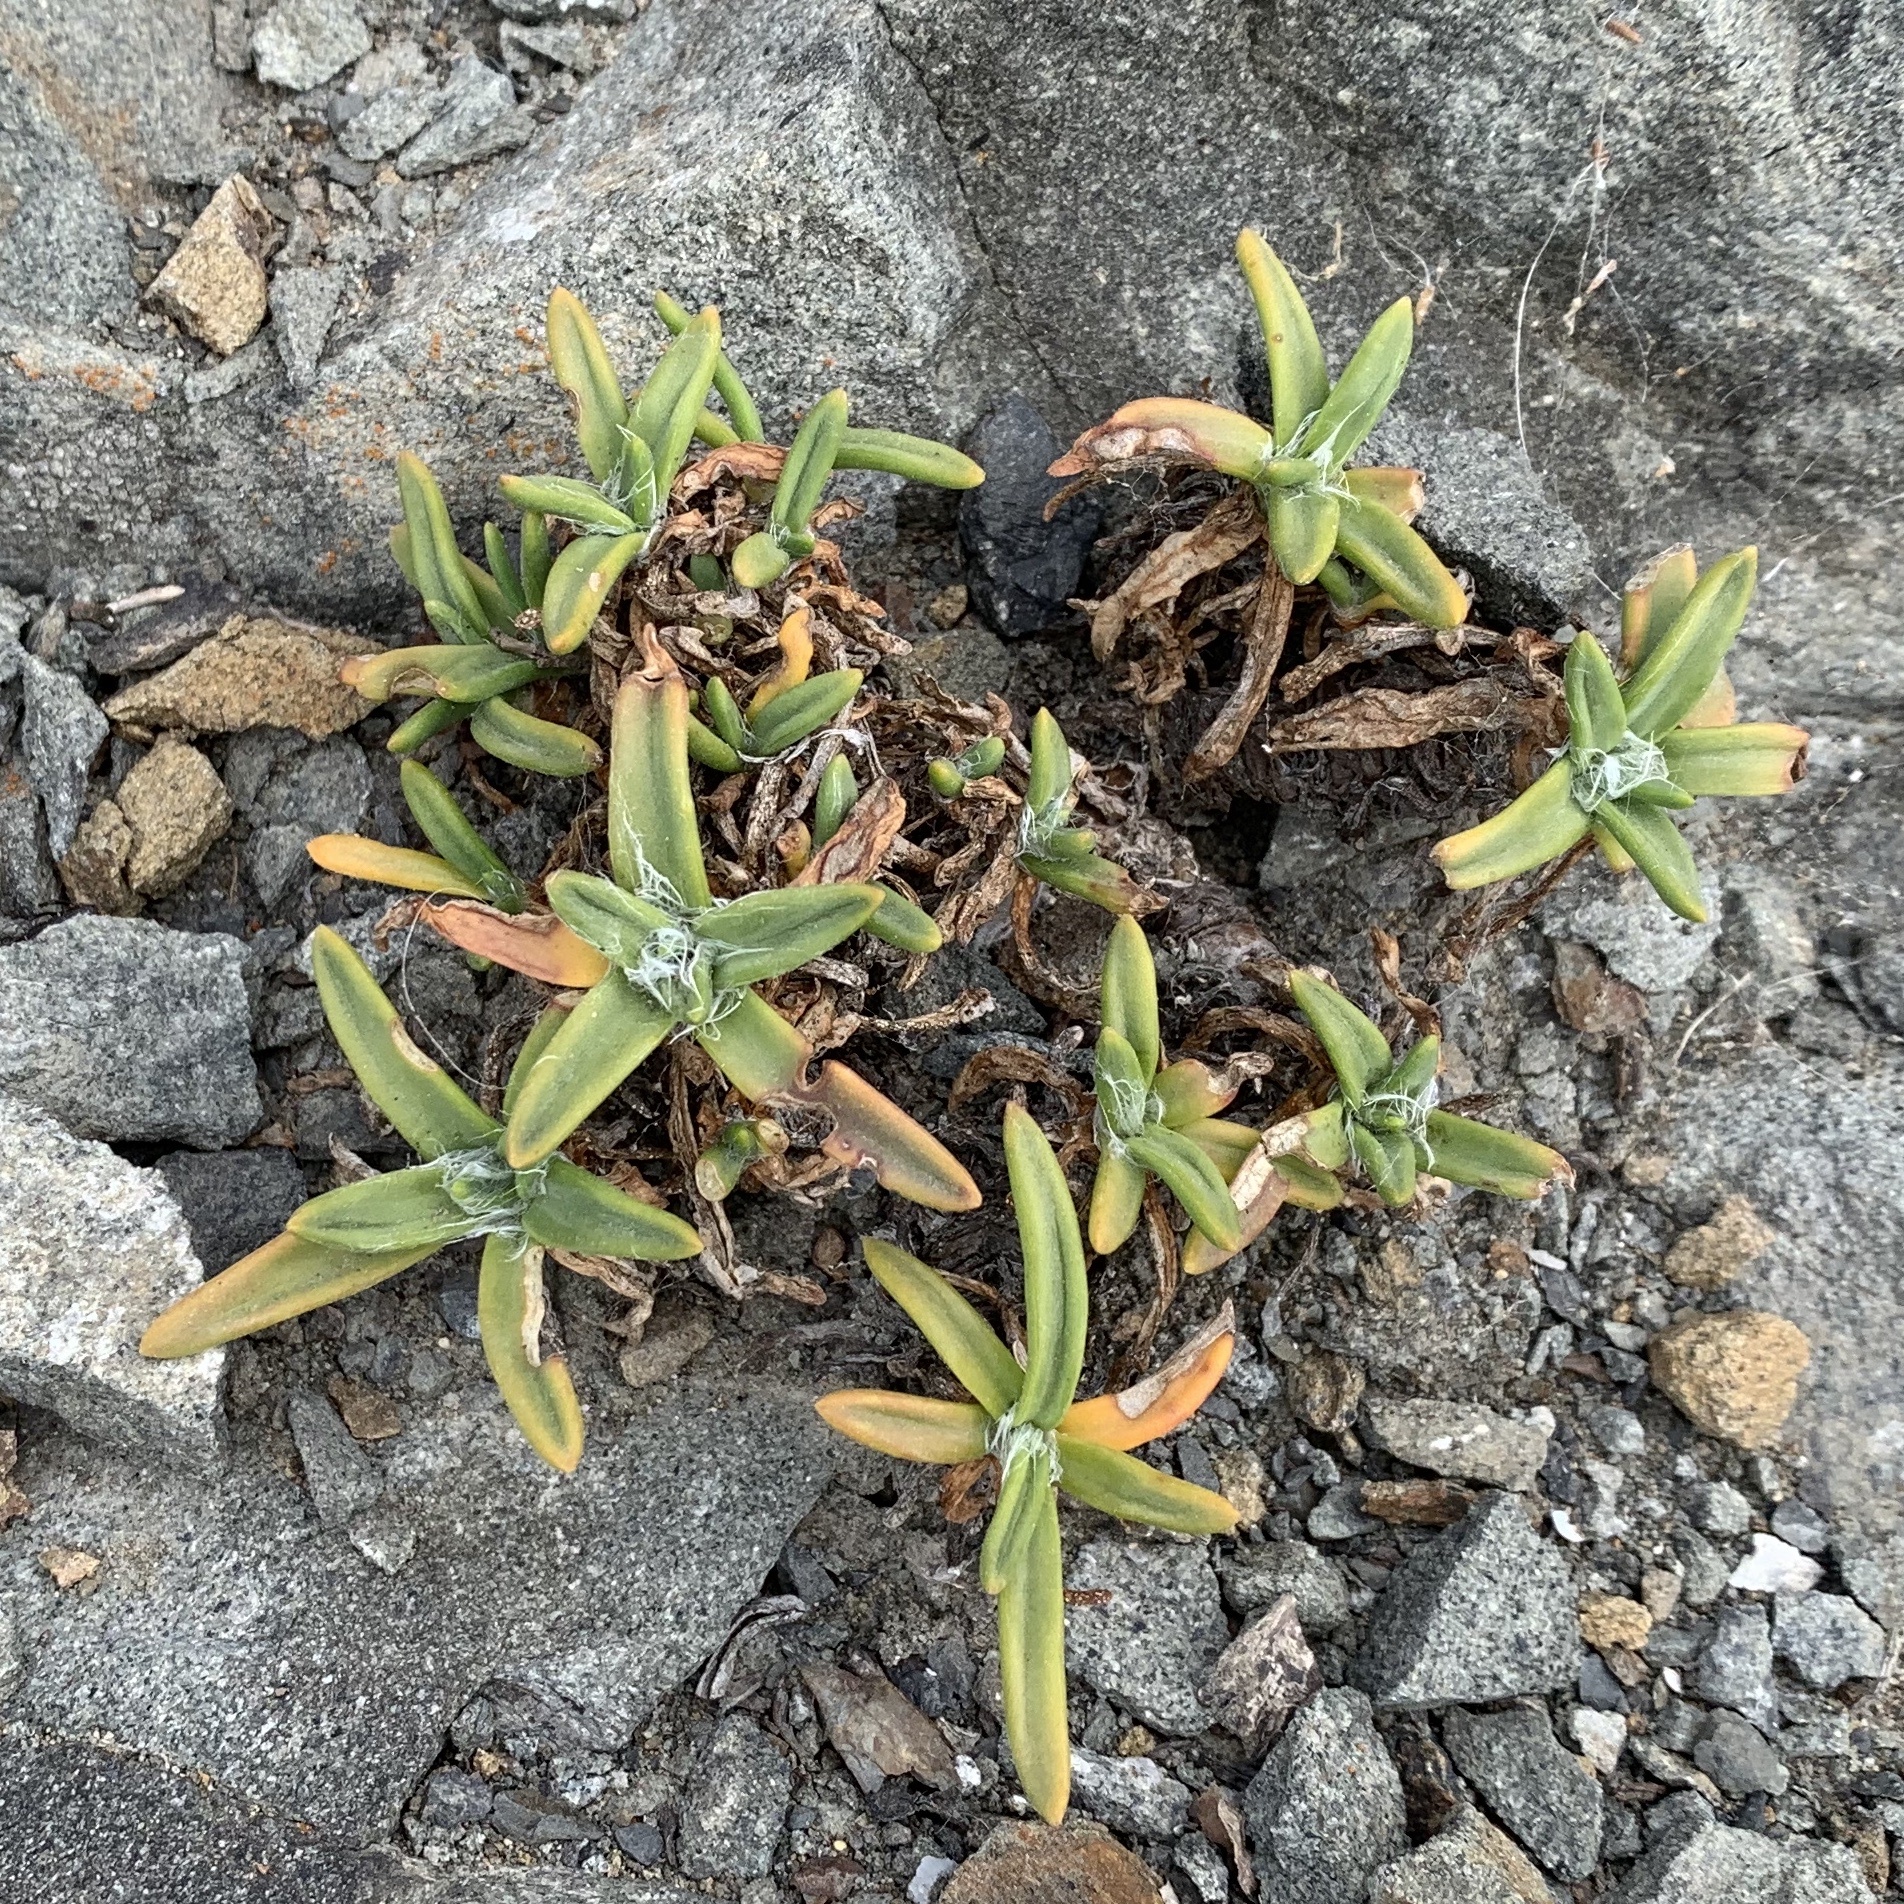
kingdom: Plantae
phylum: Tracheophyta
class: Magnoliopsida
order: Lamiales
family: Plantaginaceae
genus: Plantago
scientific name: Plantago maritima
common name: Sea plantain
